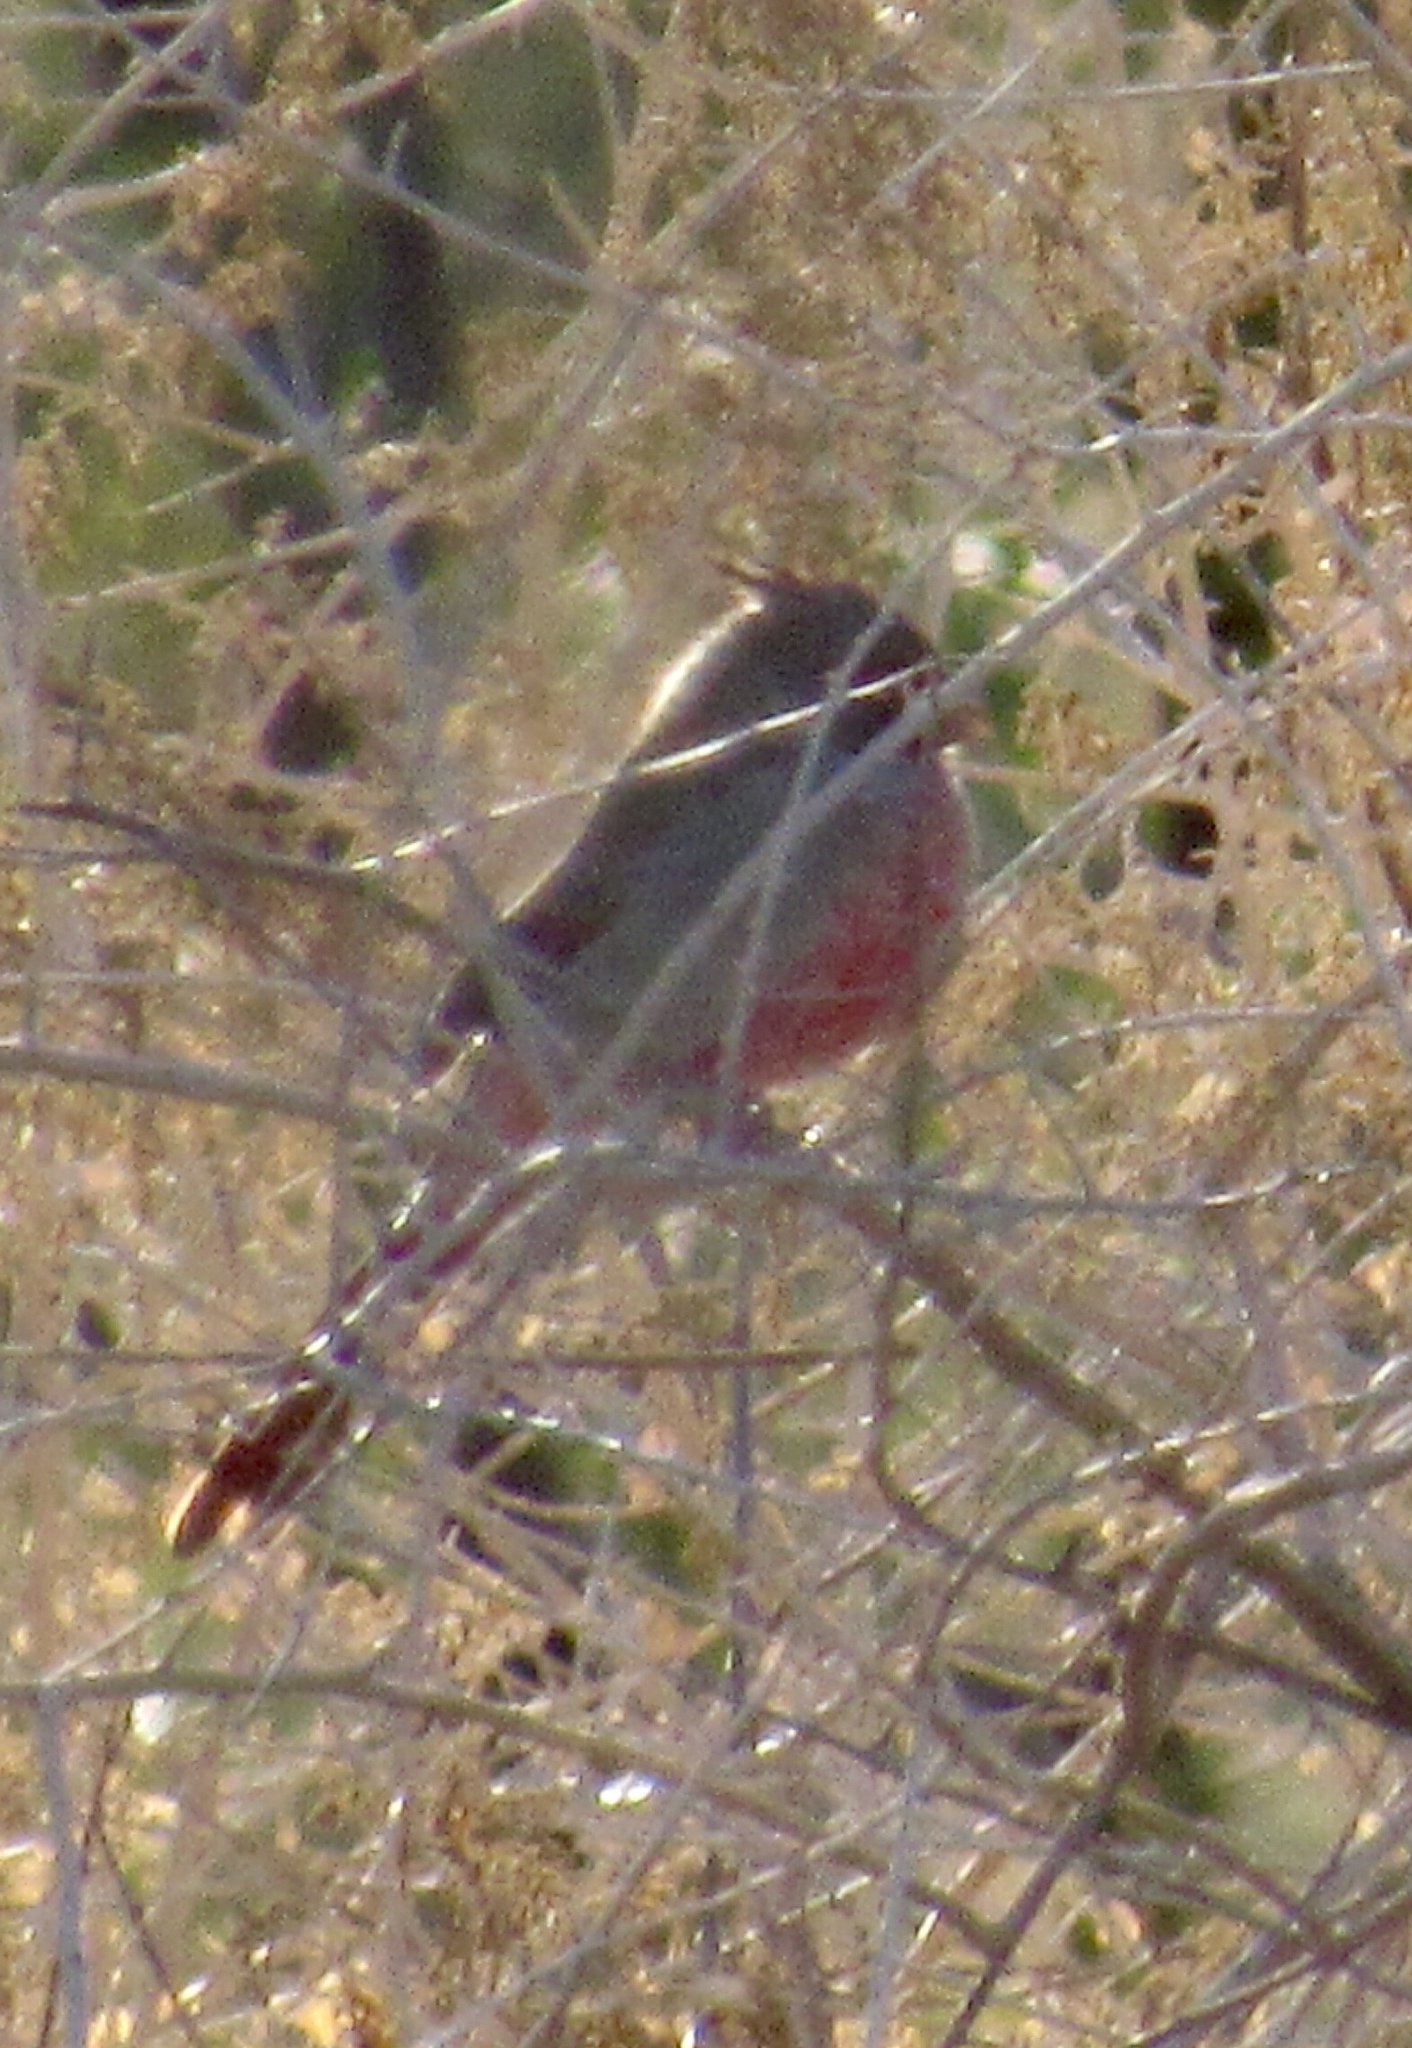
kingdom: Animalia
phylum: Chordata
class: Aves
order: Passeriformes
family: Cardinalidae
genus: Cardinalis
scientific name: Cardinalis sinuatus
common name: Pyrrhuloxia
